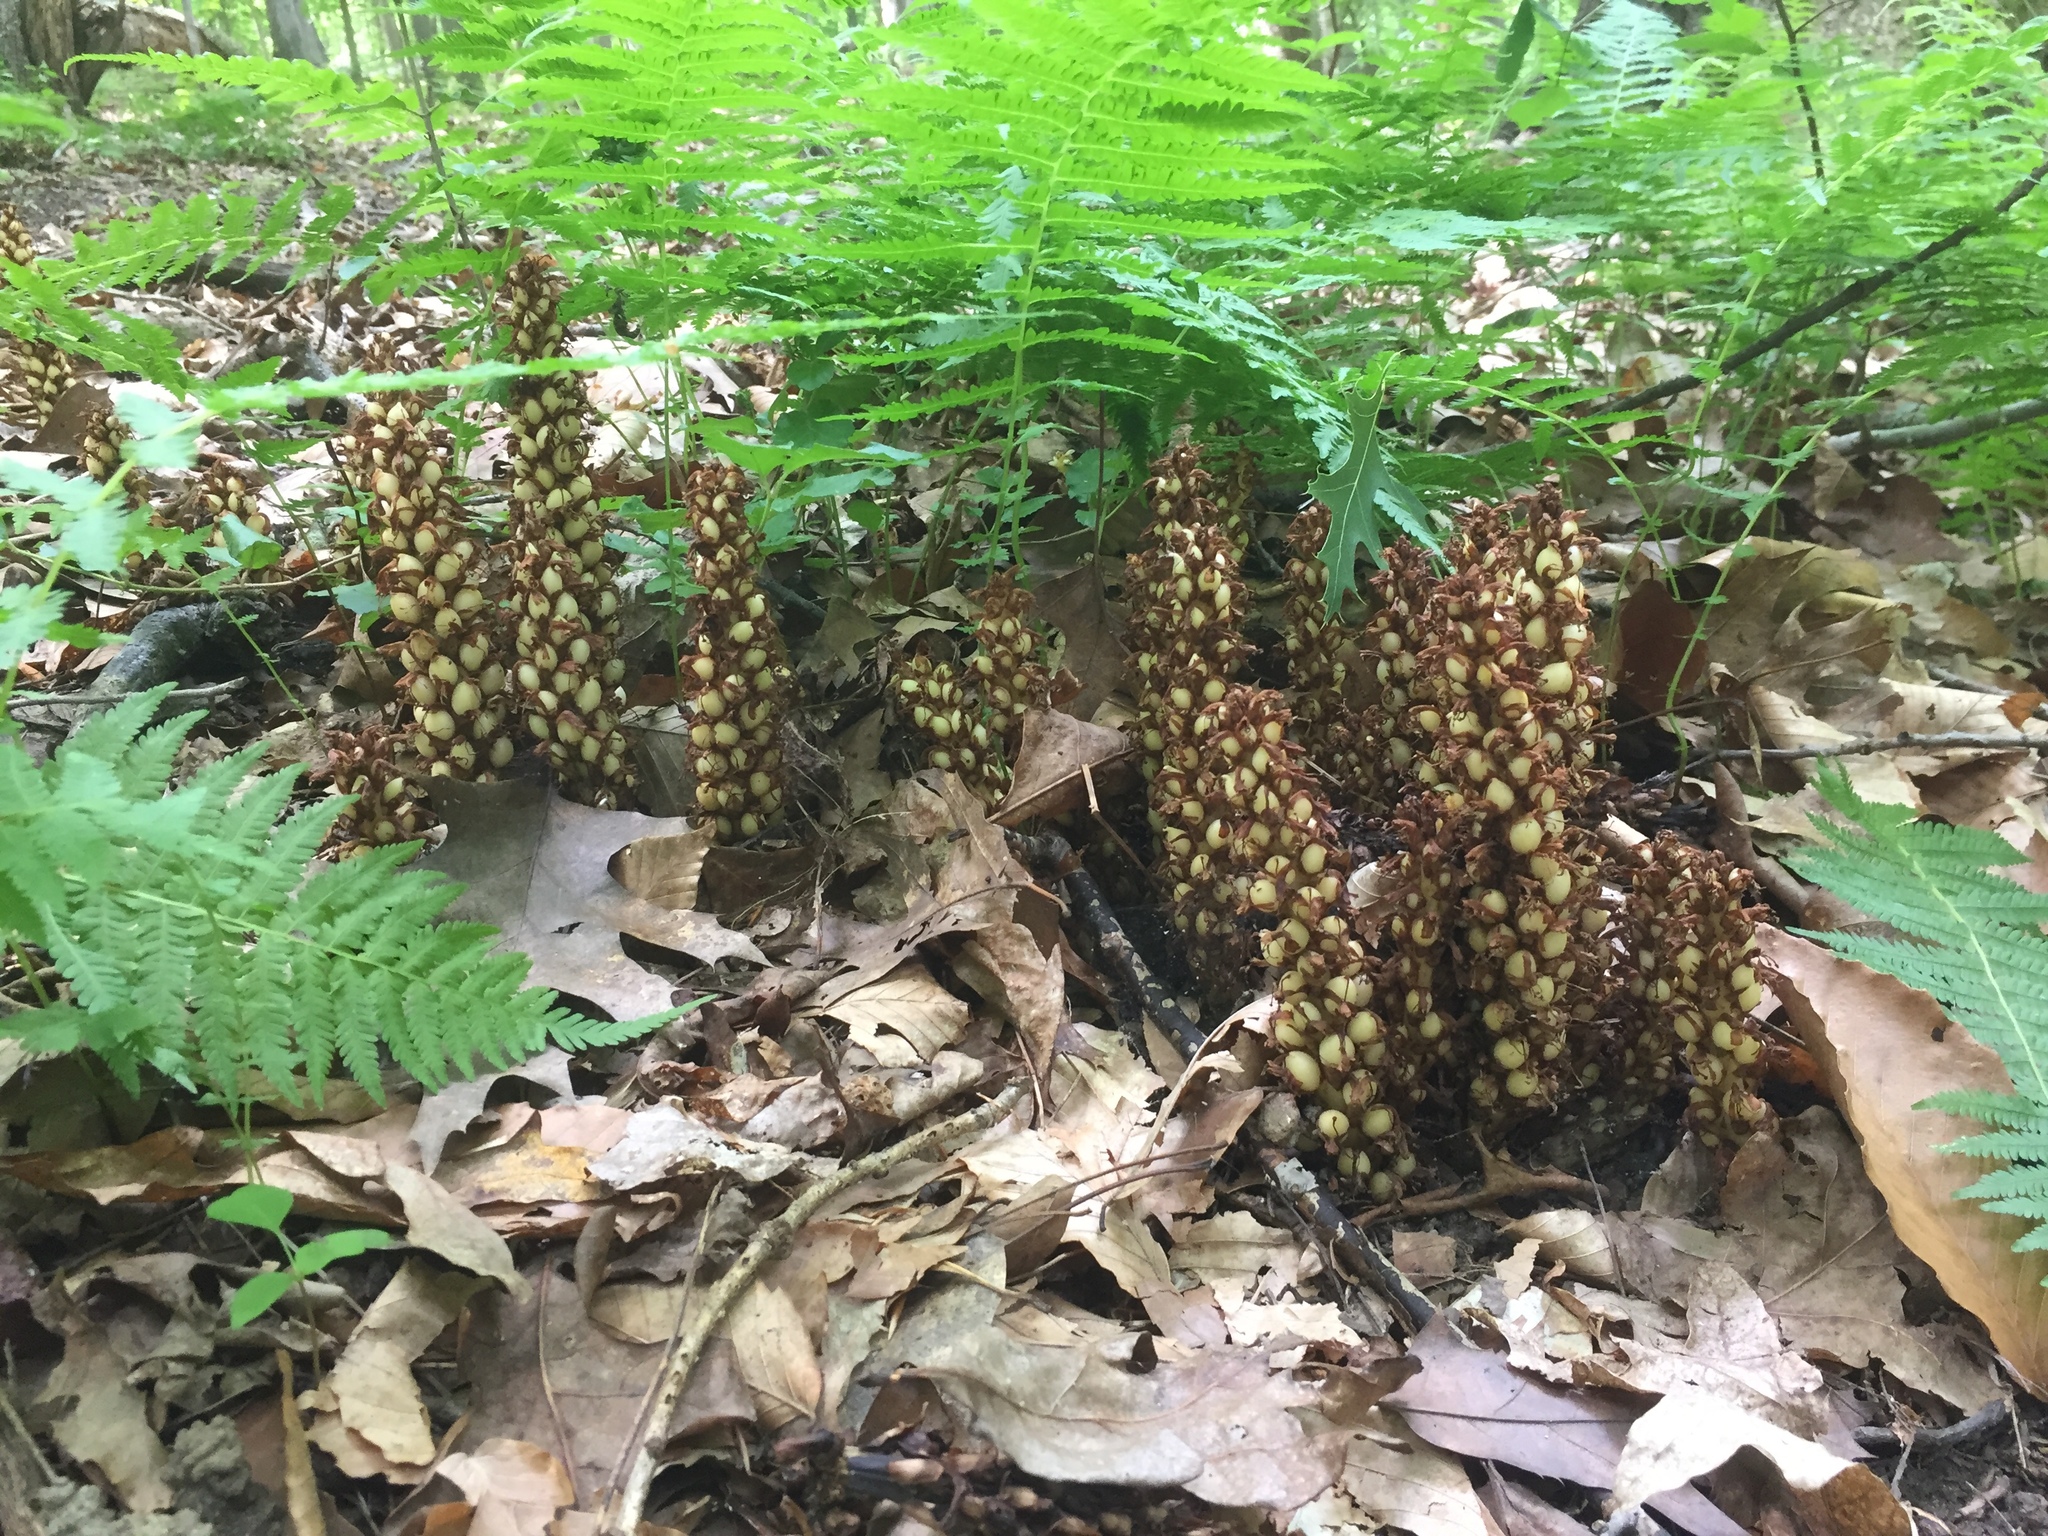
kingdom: Plantae
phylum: Tracheophyta
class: Magnoliopsida
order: Lamiales
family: Orobanchaceae
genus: Conopholis
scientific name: Conopholis americana
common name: American cancer-root
